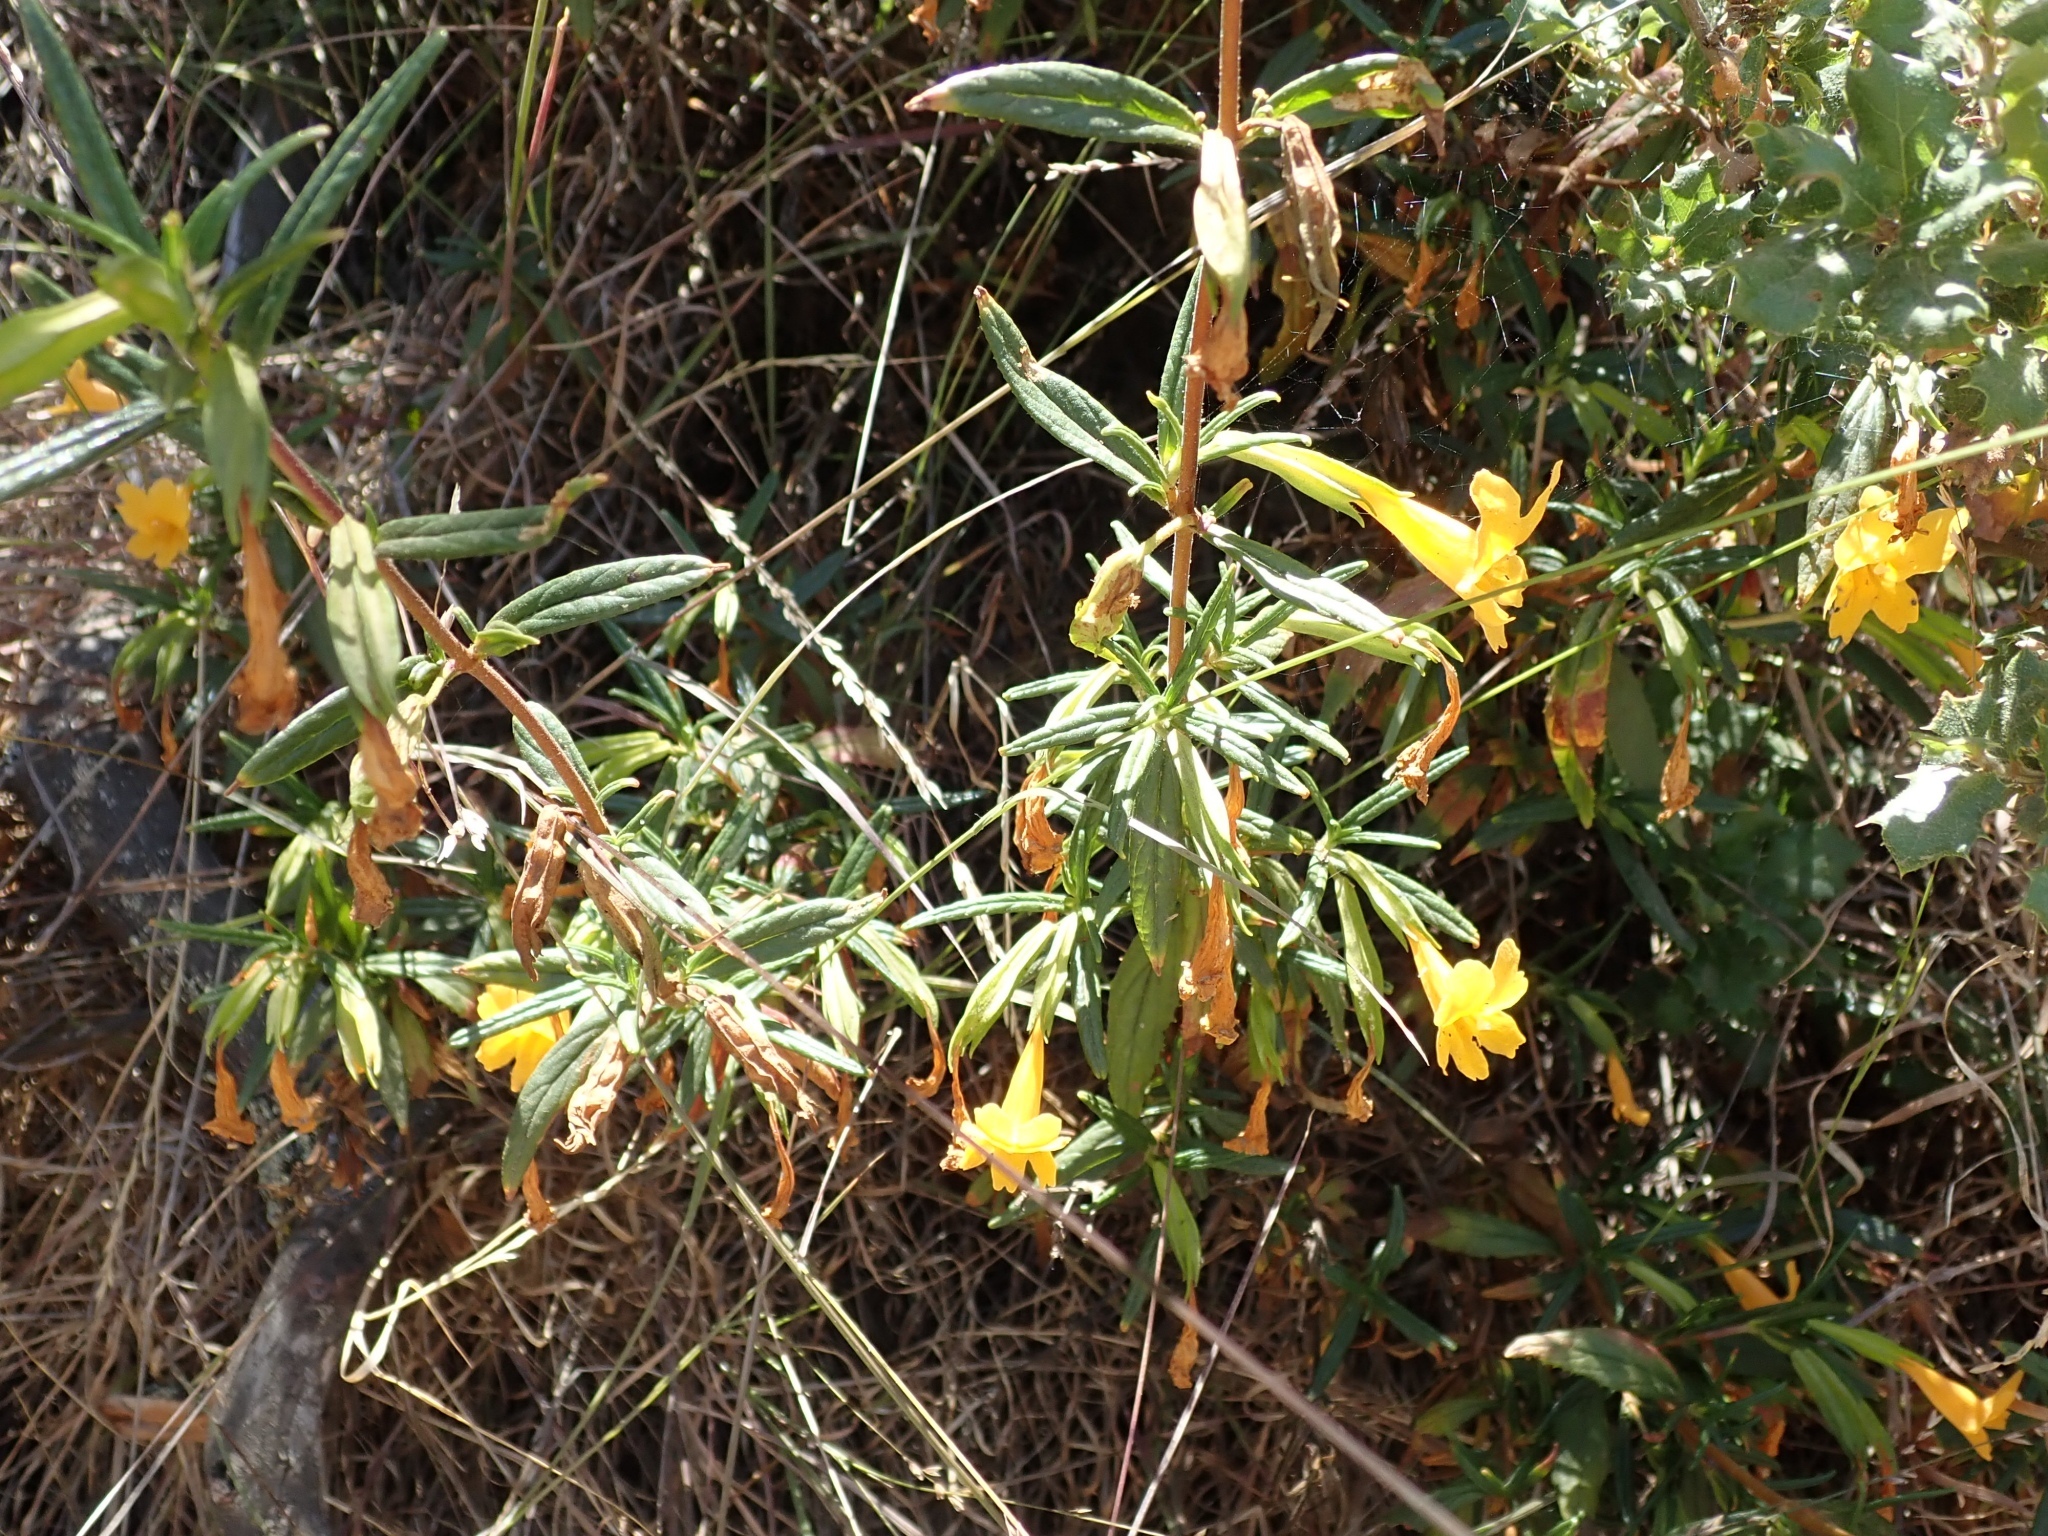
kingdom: Plantae
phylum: Tracheophyta
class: Magnoliopsida
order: Lamiales
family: Phrymaceae
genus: Diplacus
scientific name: Diplacus aurantiacus
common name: Bush monkey-flower
